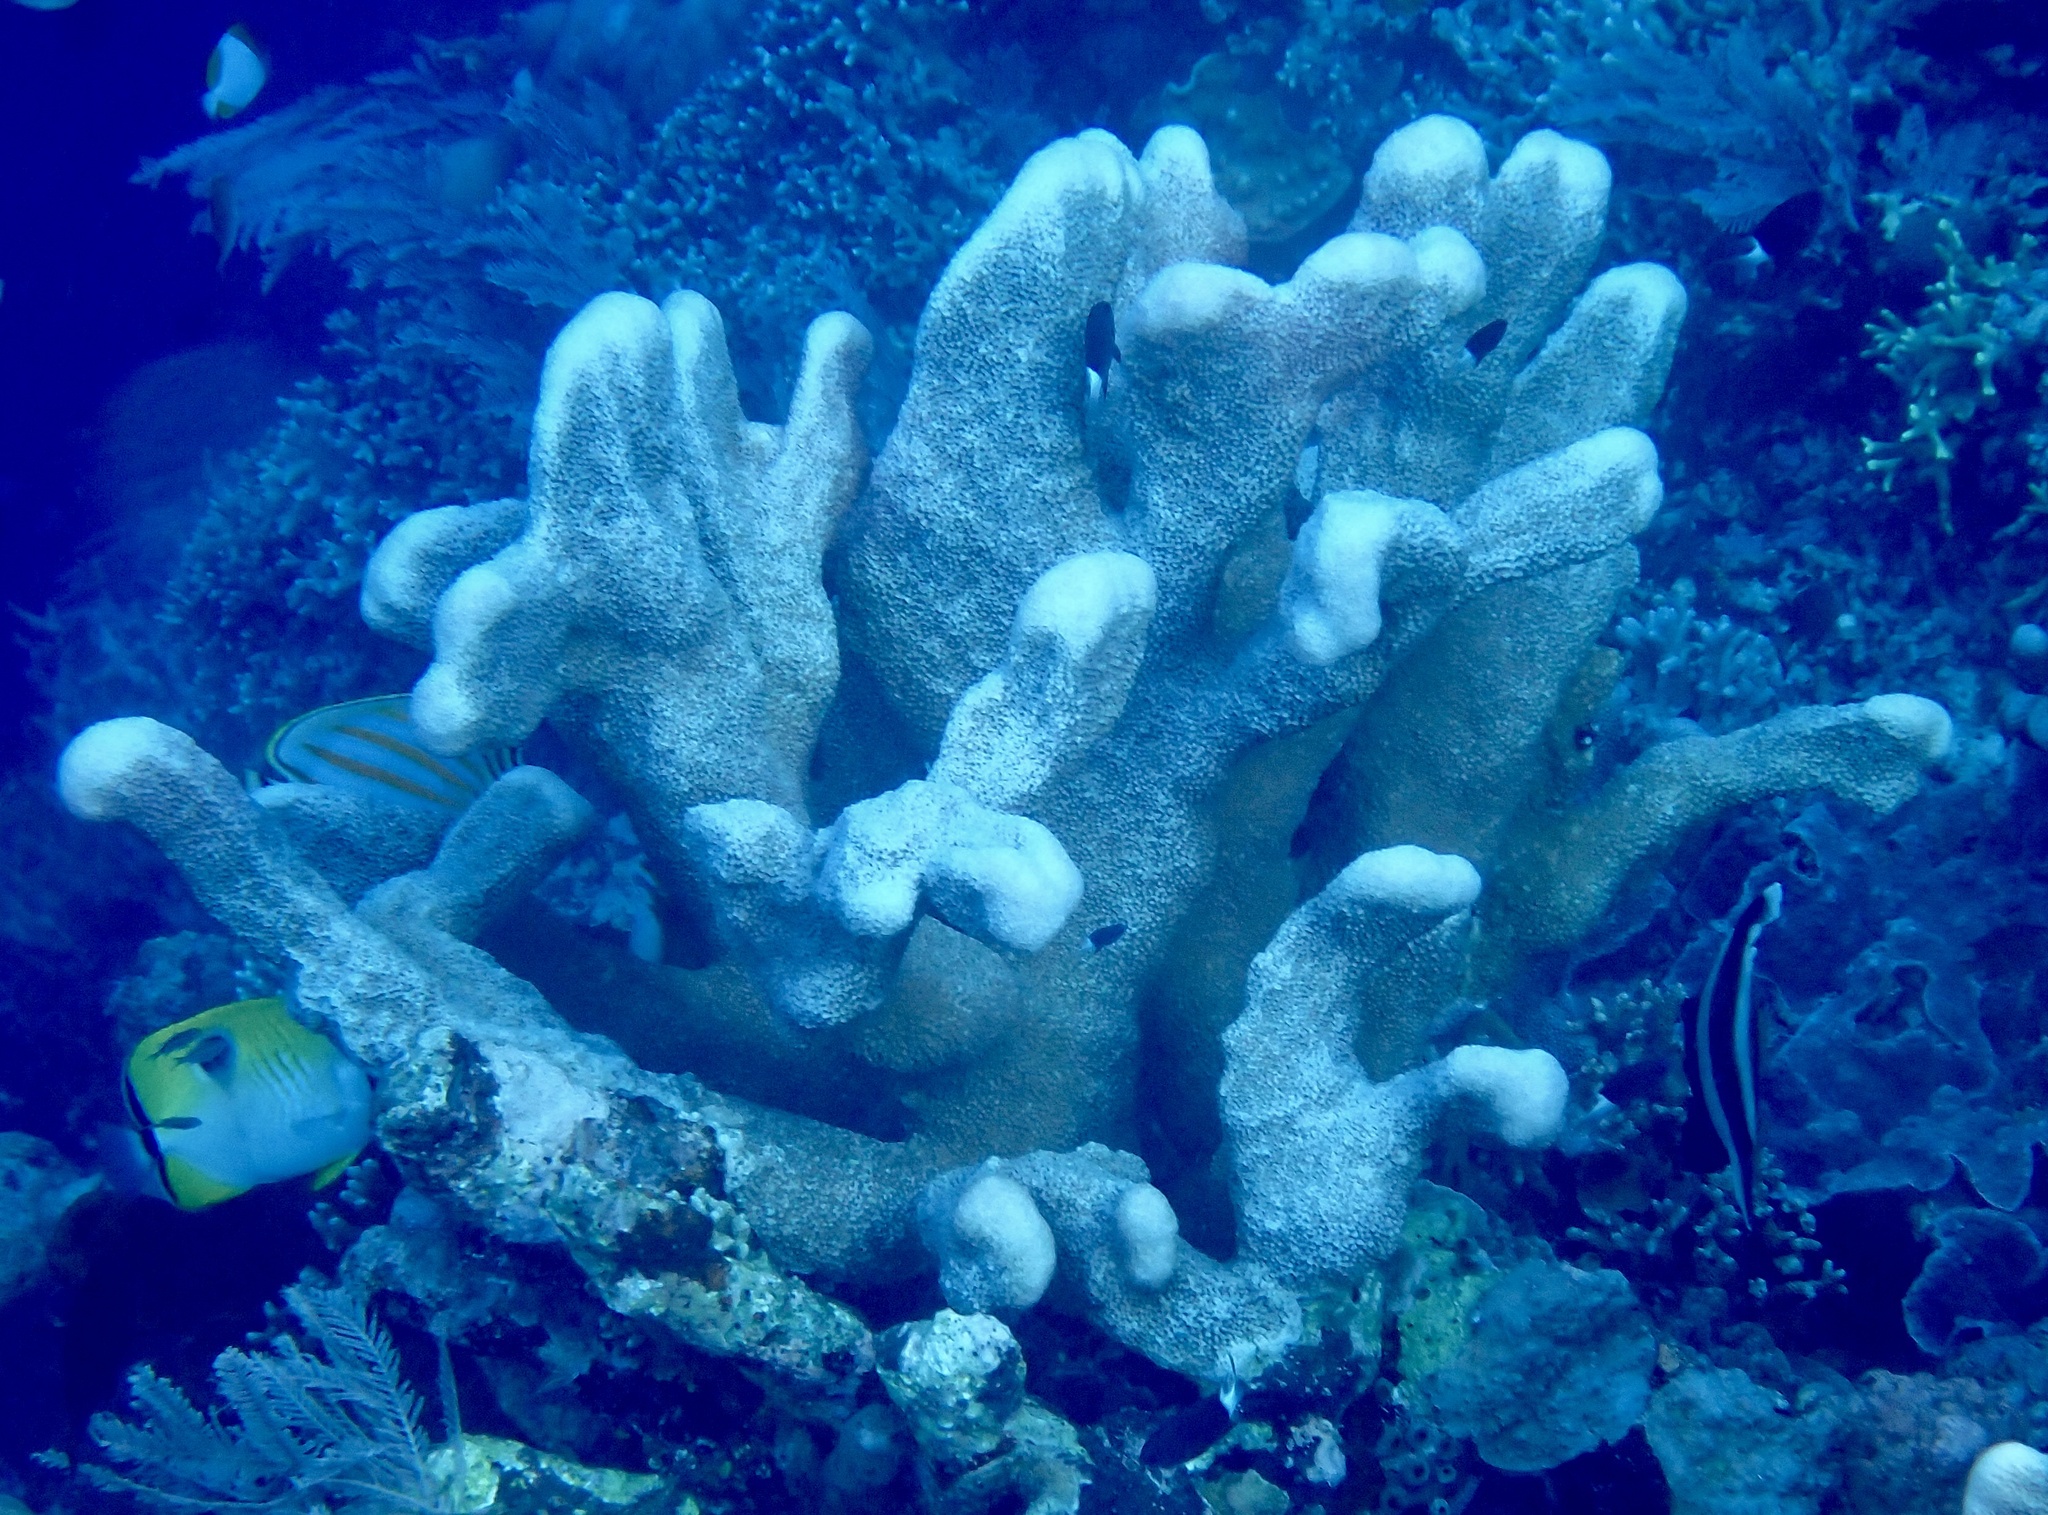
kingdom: Animalia
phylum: Cnidaria
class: Anthozoa
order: Scleractinia
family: Acroporidae
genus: Isopora
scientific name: Isopora palifera
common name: Catch bowl coral
